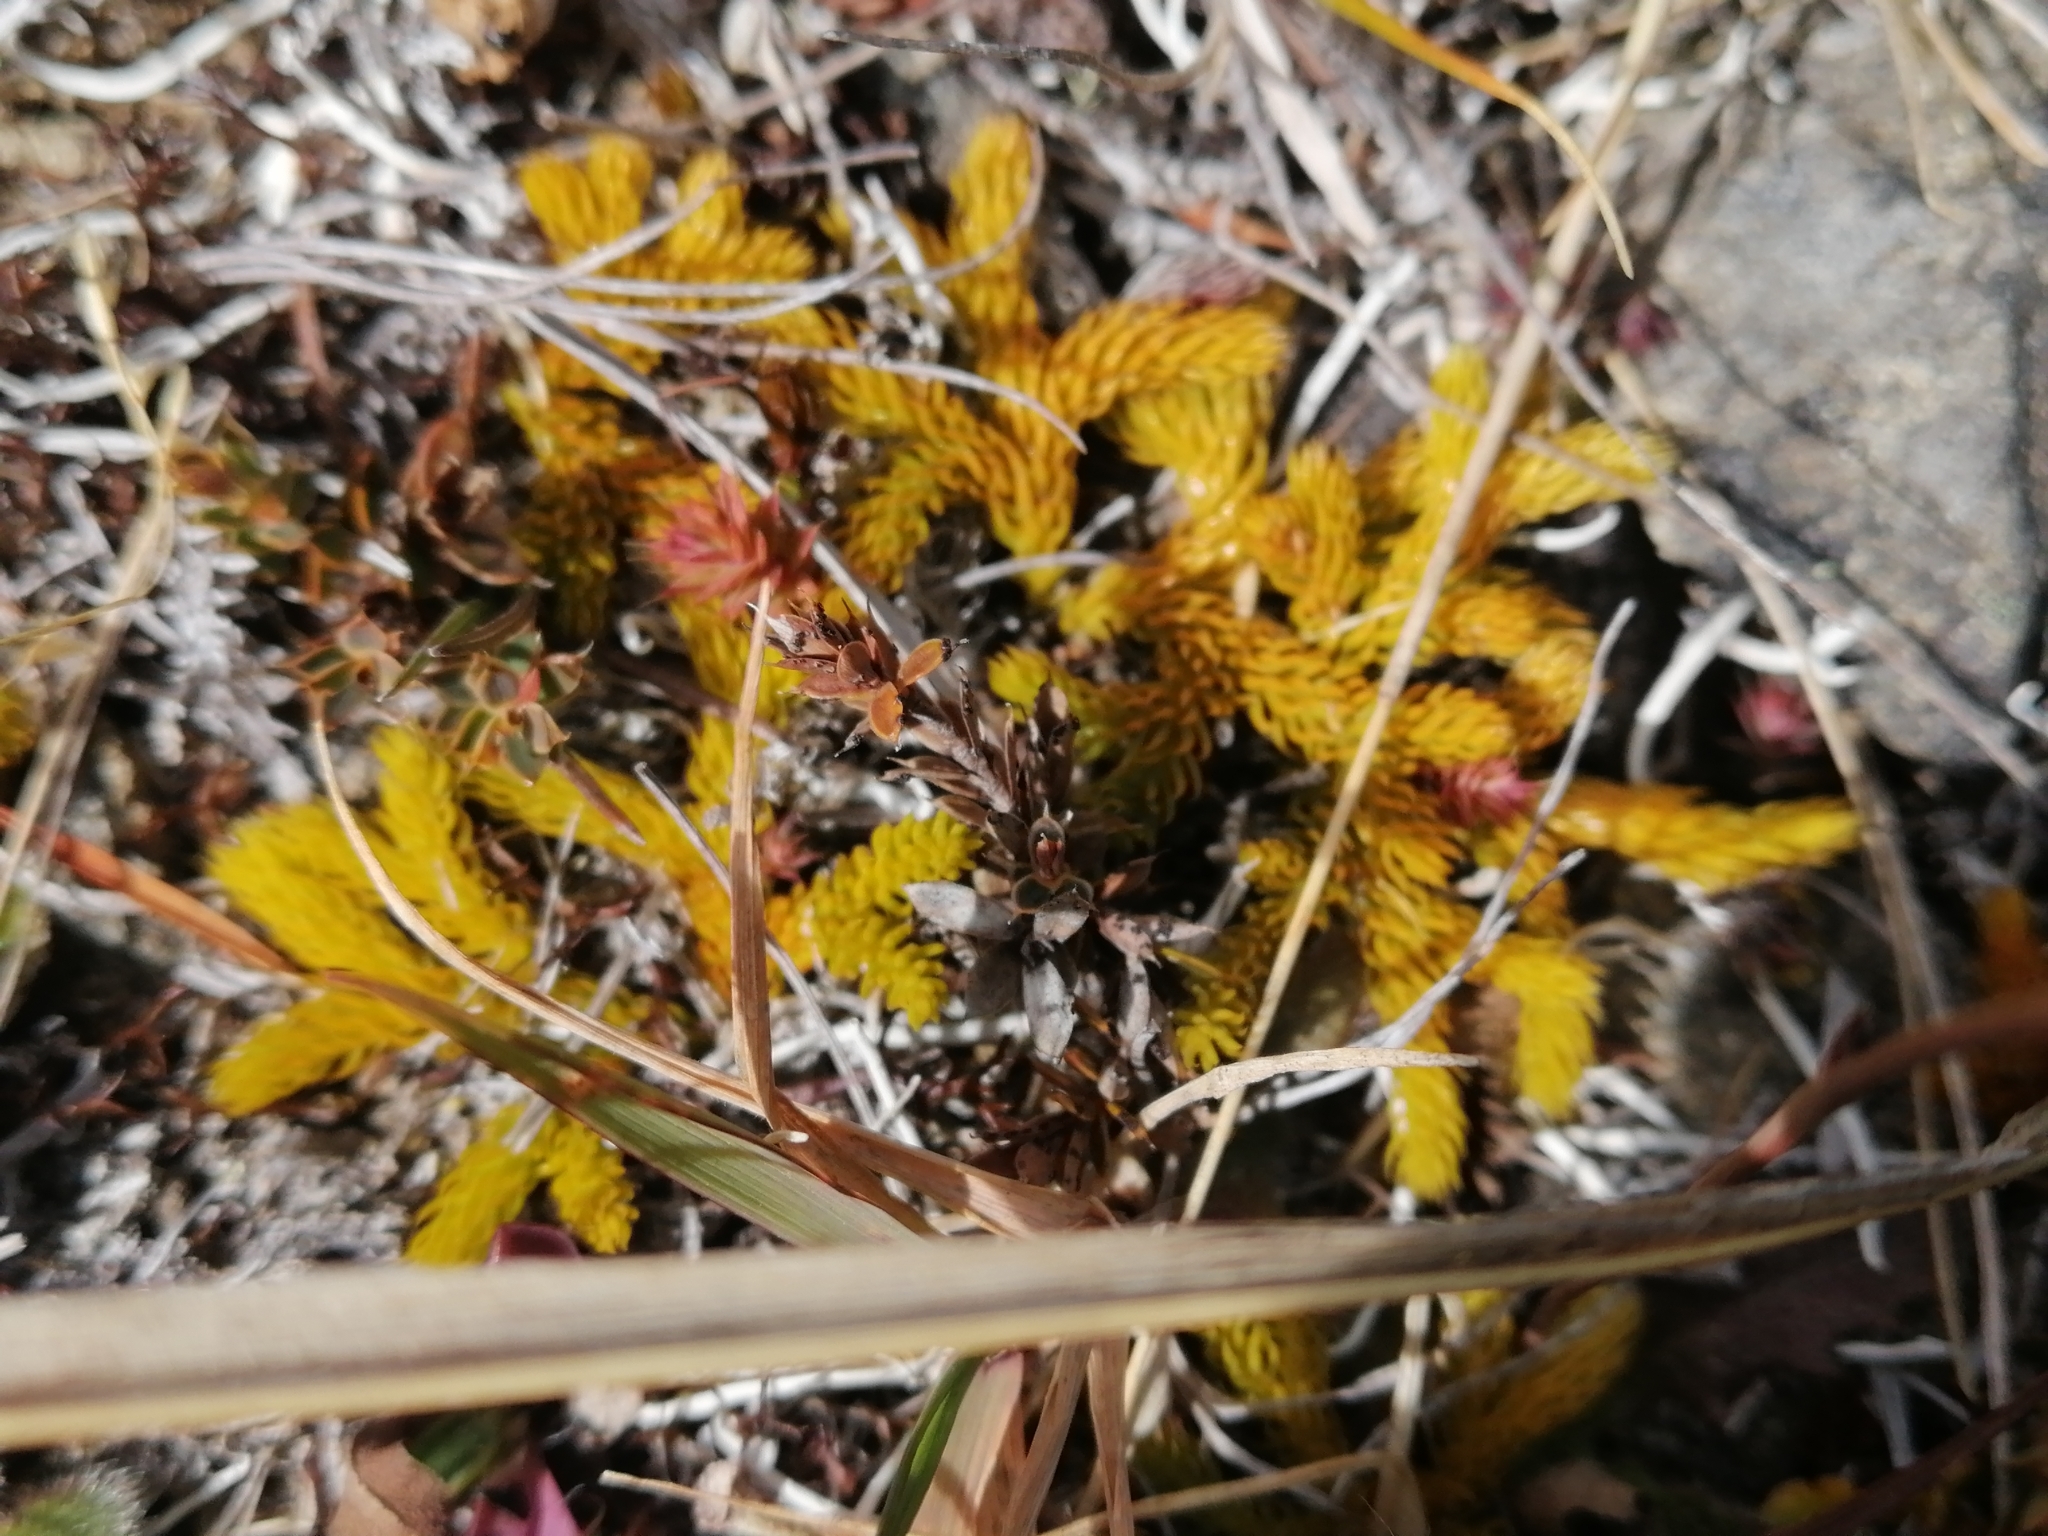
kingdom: Plantae
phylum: Tracheophyta
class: Lycopodiopsida
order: Lycopodiales
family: Lycopodiaceae
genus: Austrolycopodium
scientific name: Austrolycopodium fastigiatum
